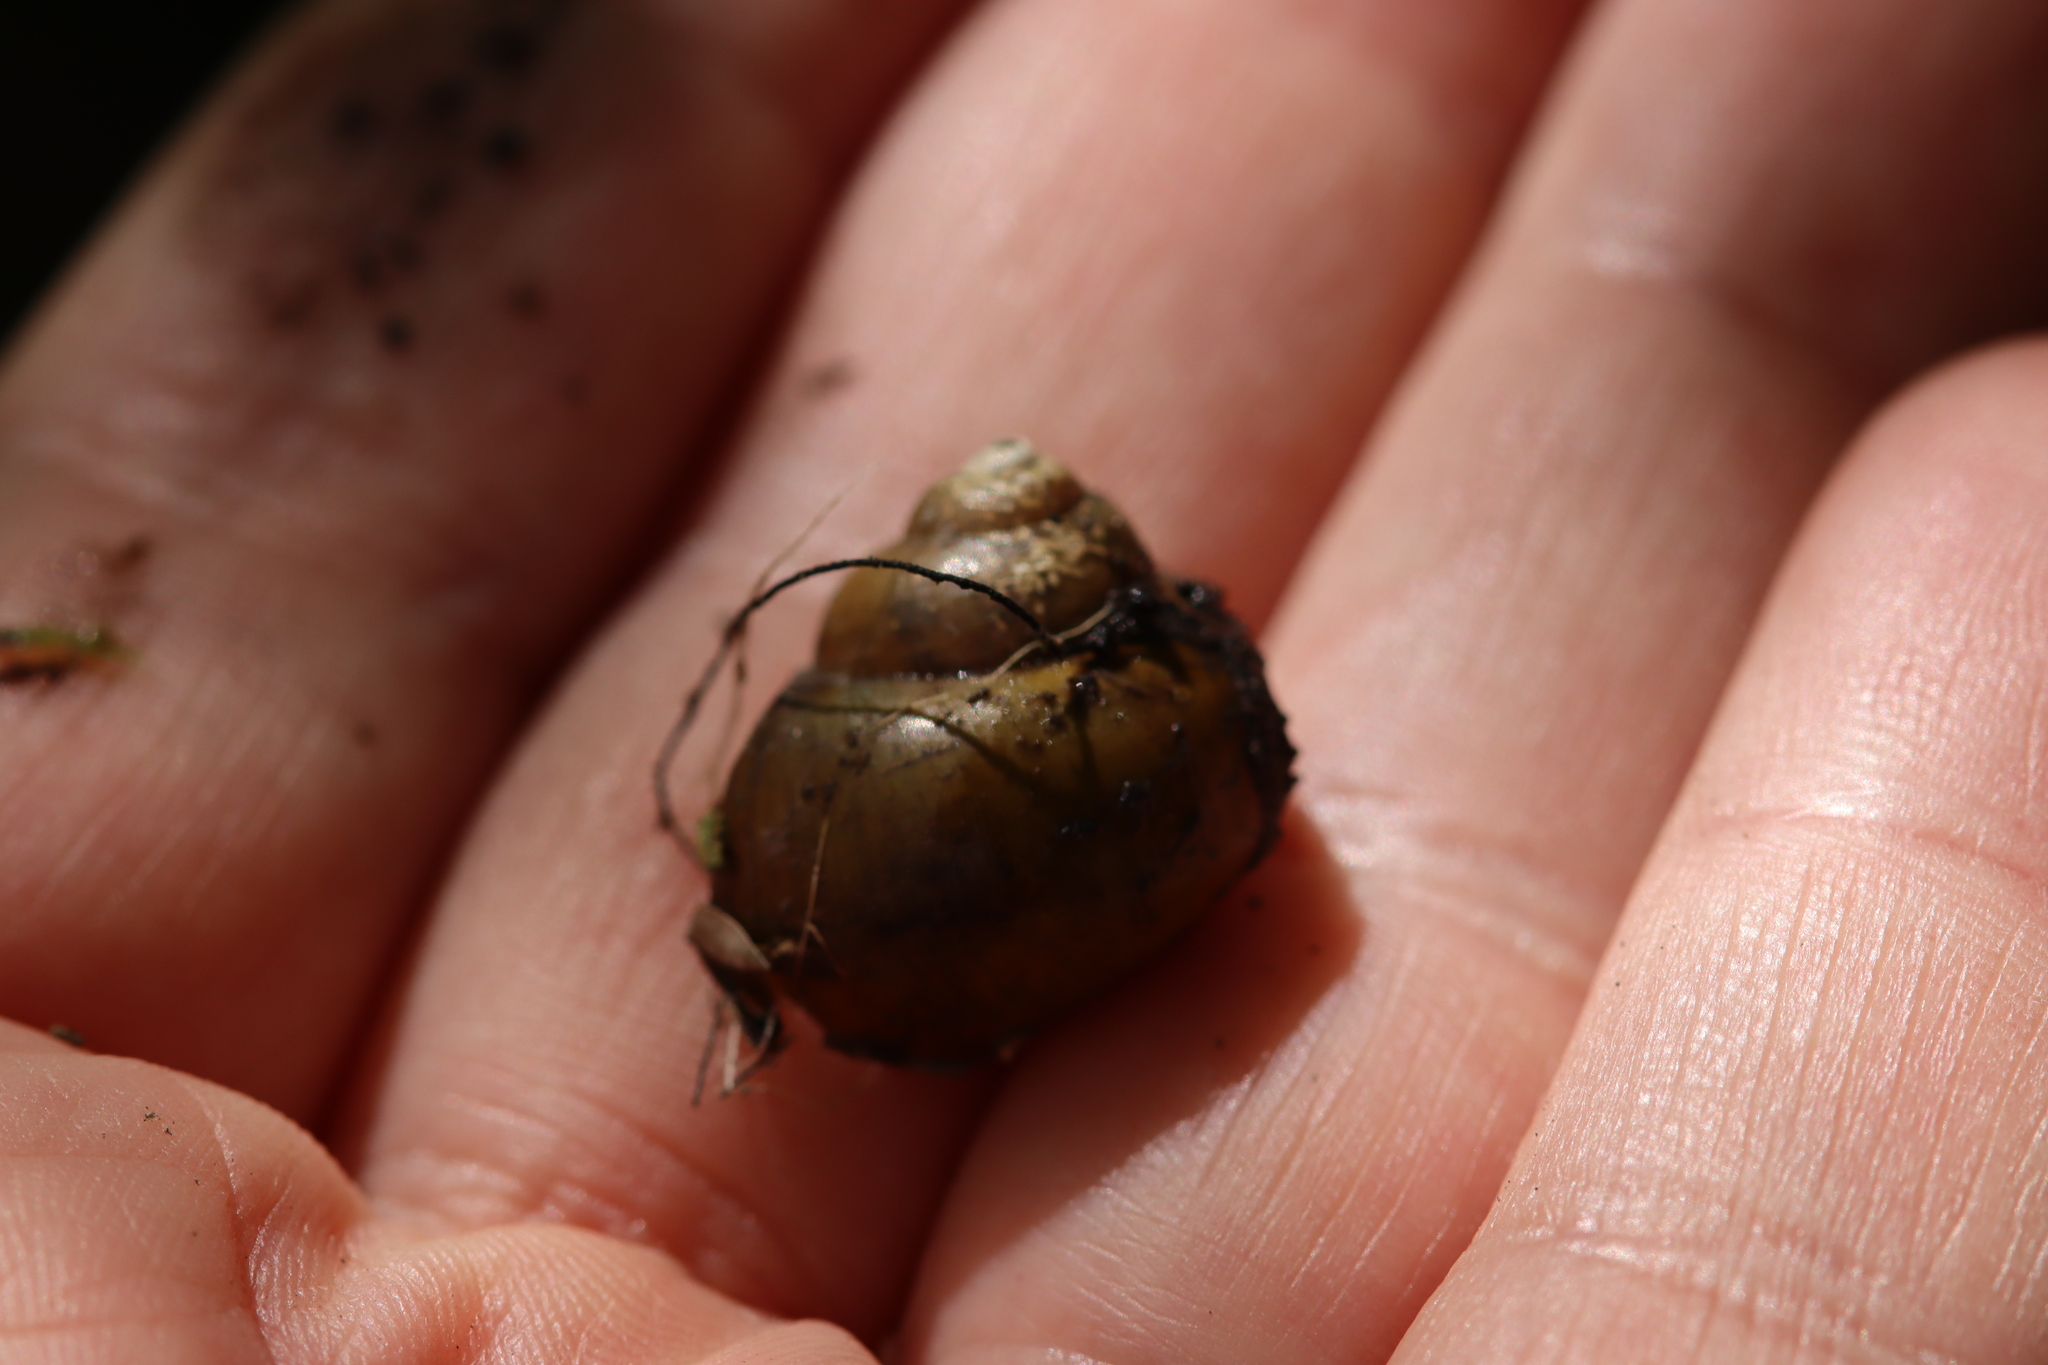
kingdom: Animalia
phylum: Mollusca
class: Gastropoda
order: Architaenioglossa
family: Viviparidae
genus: Cipangopaludina
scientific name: Cipangopaludina chinensis
